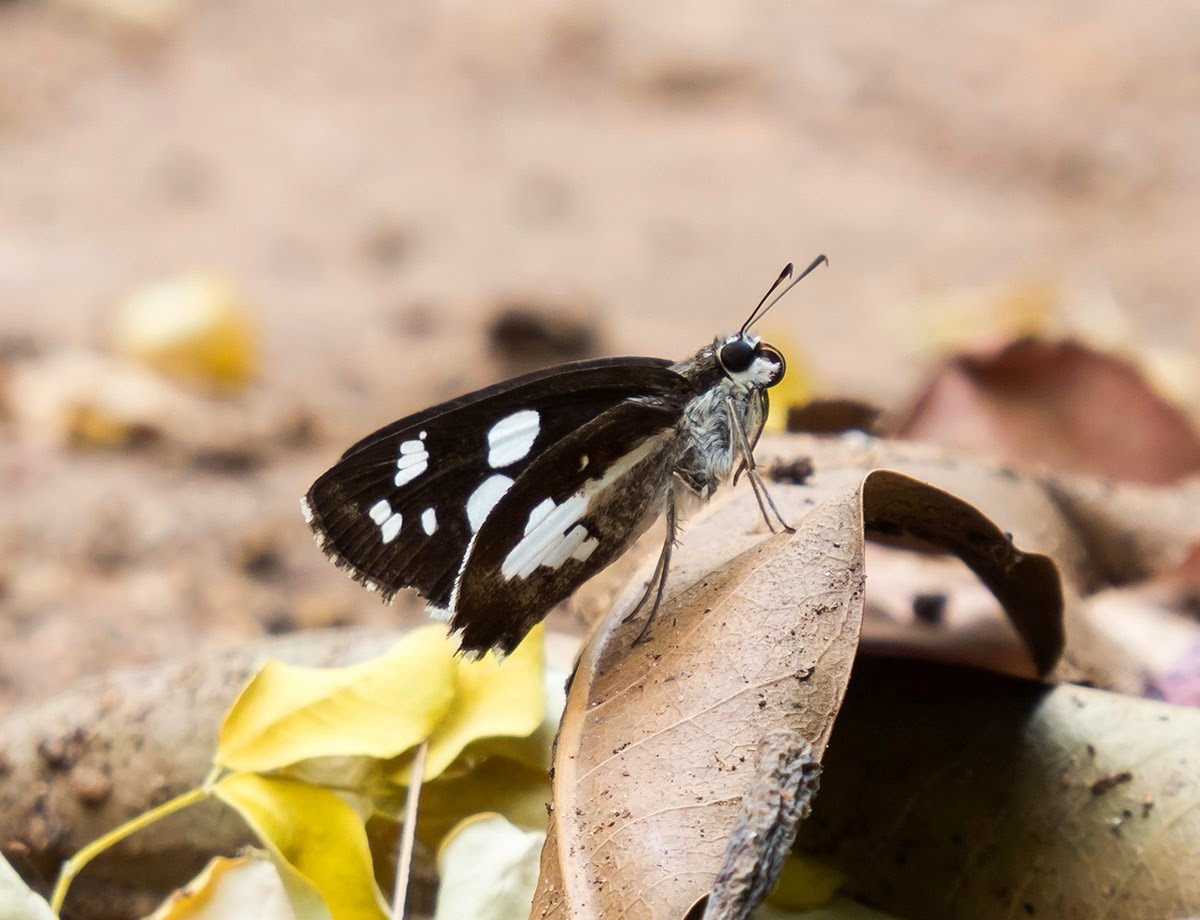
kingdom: Animalia
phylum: Arthropoda
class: Insecta
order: Lepidoptera
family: Hesperiidae
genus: Udaspes
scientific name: Udaspes folus
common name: Grass demon
